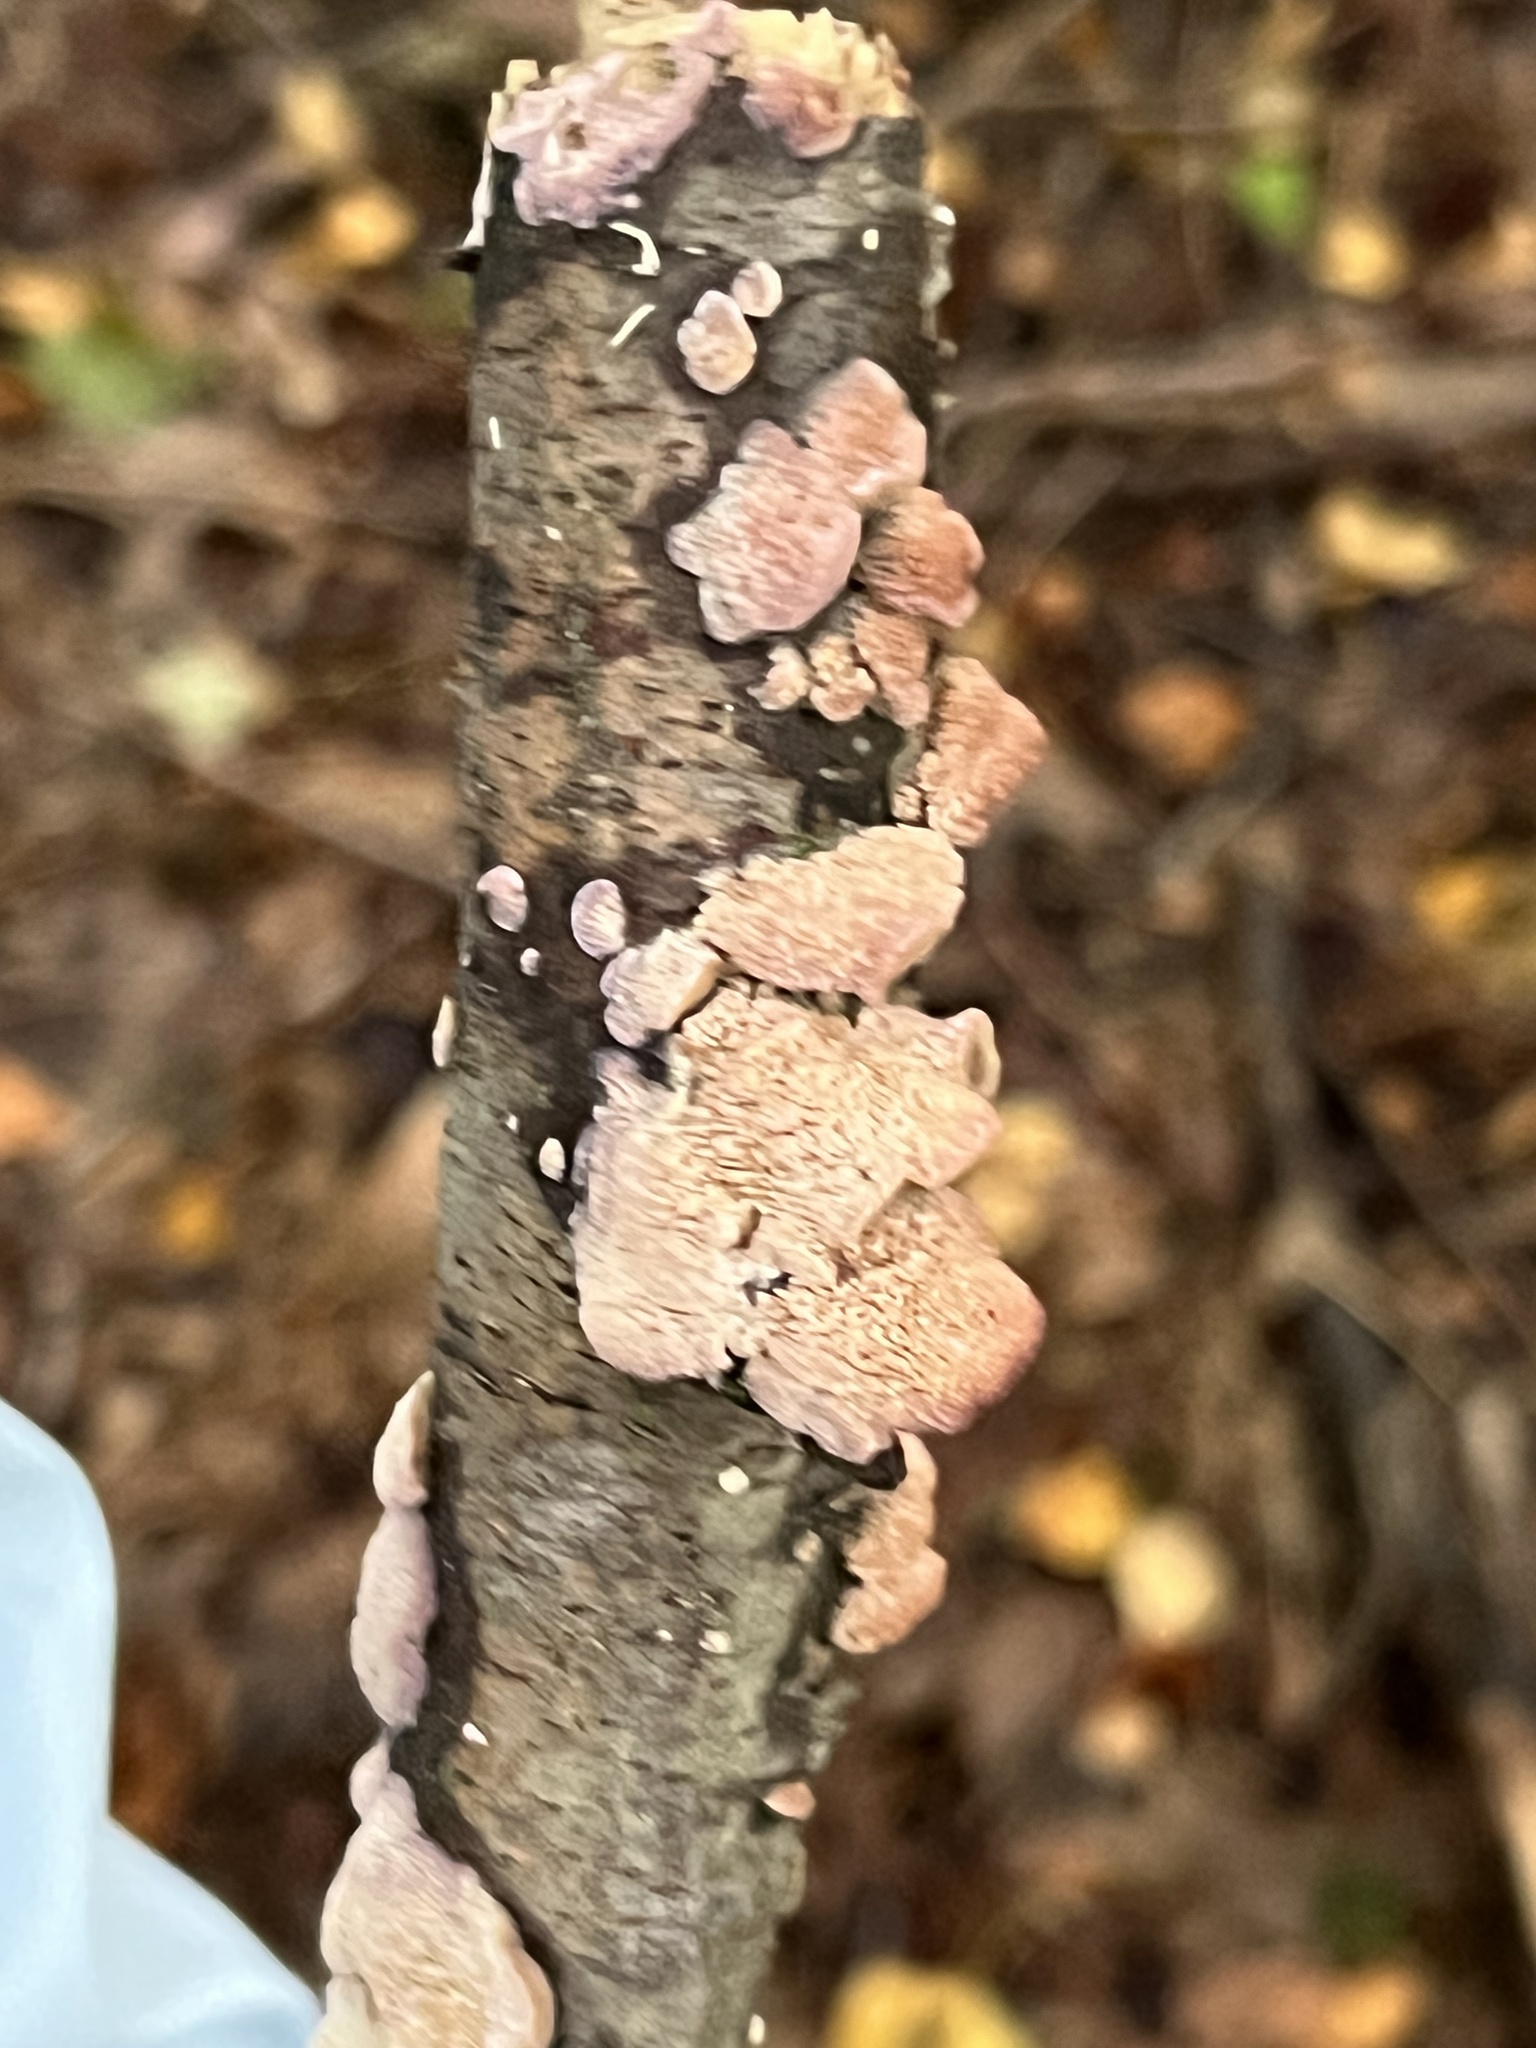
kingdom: Fungi
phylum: Basidiomycota
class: Agaricomycetes
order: Hymenochaetales
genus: Trichaptum
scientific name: Trichaptum biforme
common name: Violet-toothed polypore
